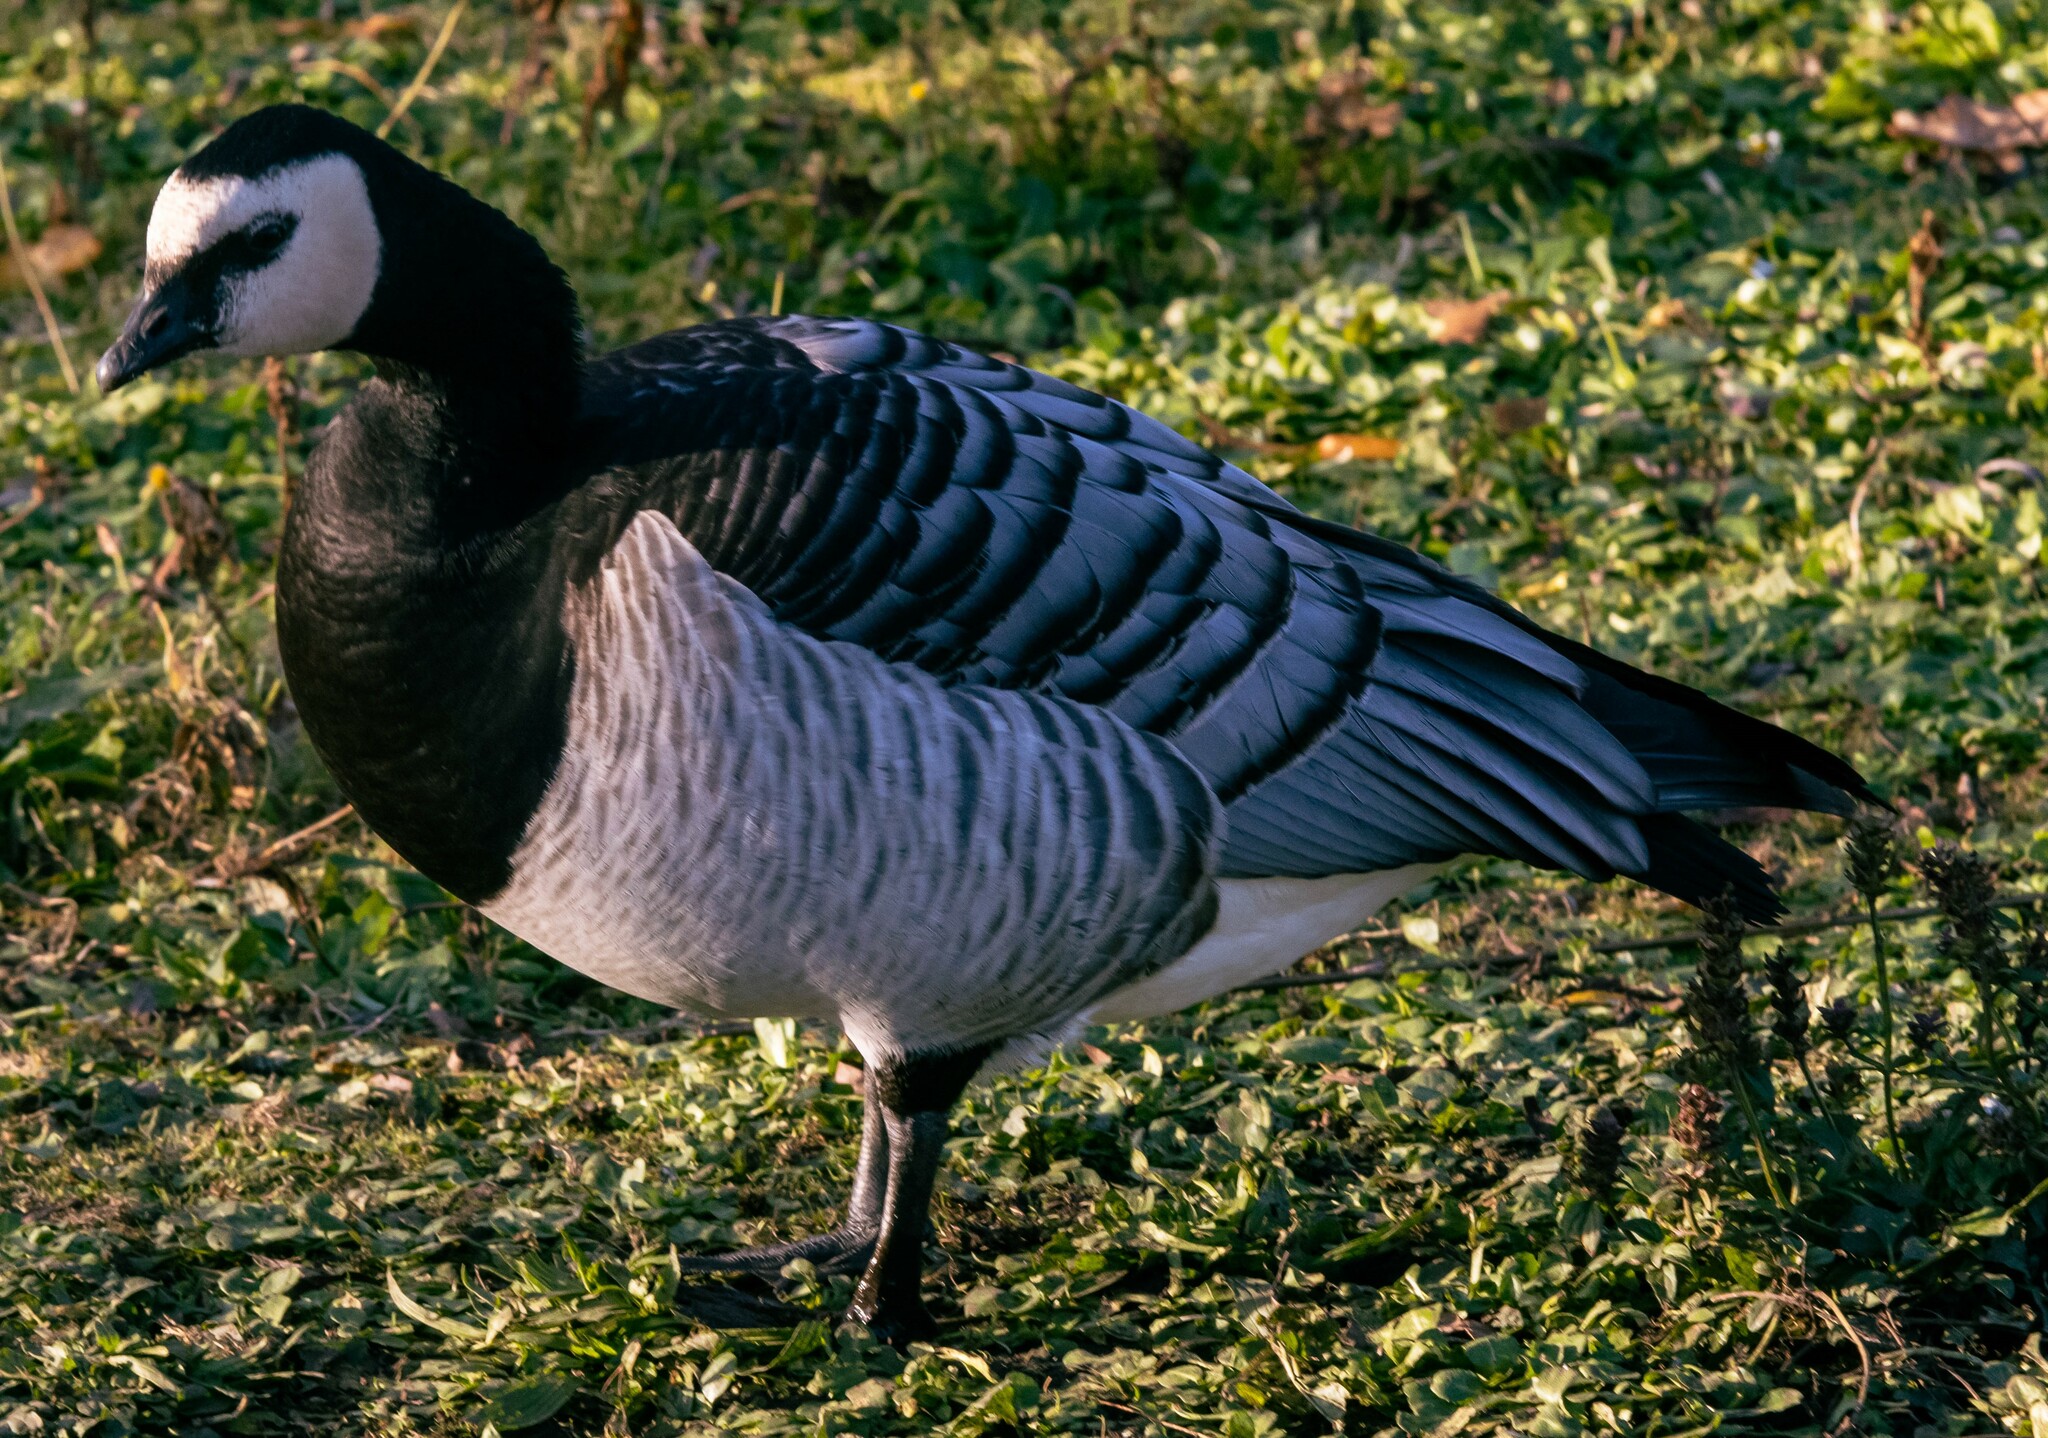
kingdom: Animalia
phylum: Chordata
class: Aves
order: Anseriformes
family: Anatidae
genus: Branta
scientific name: Branta leucopsis
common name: Barnacle goose
